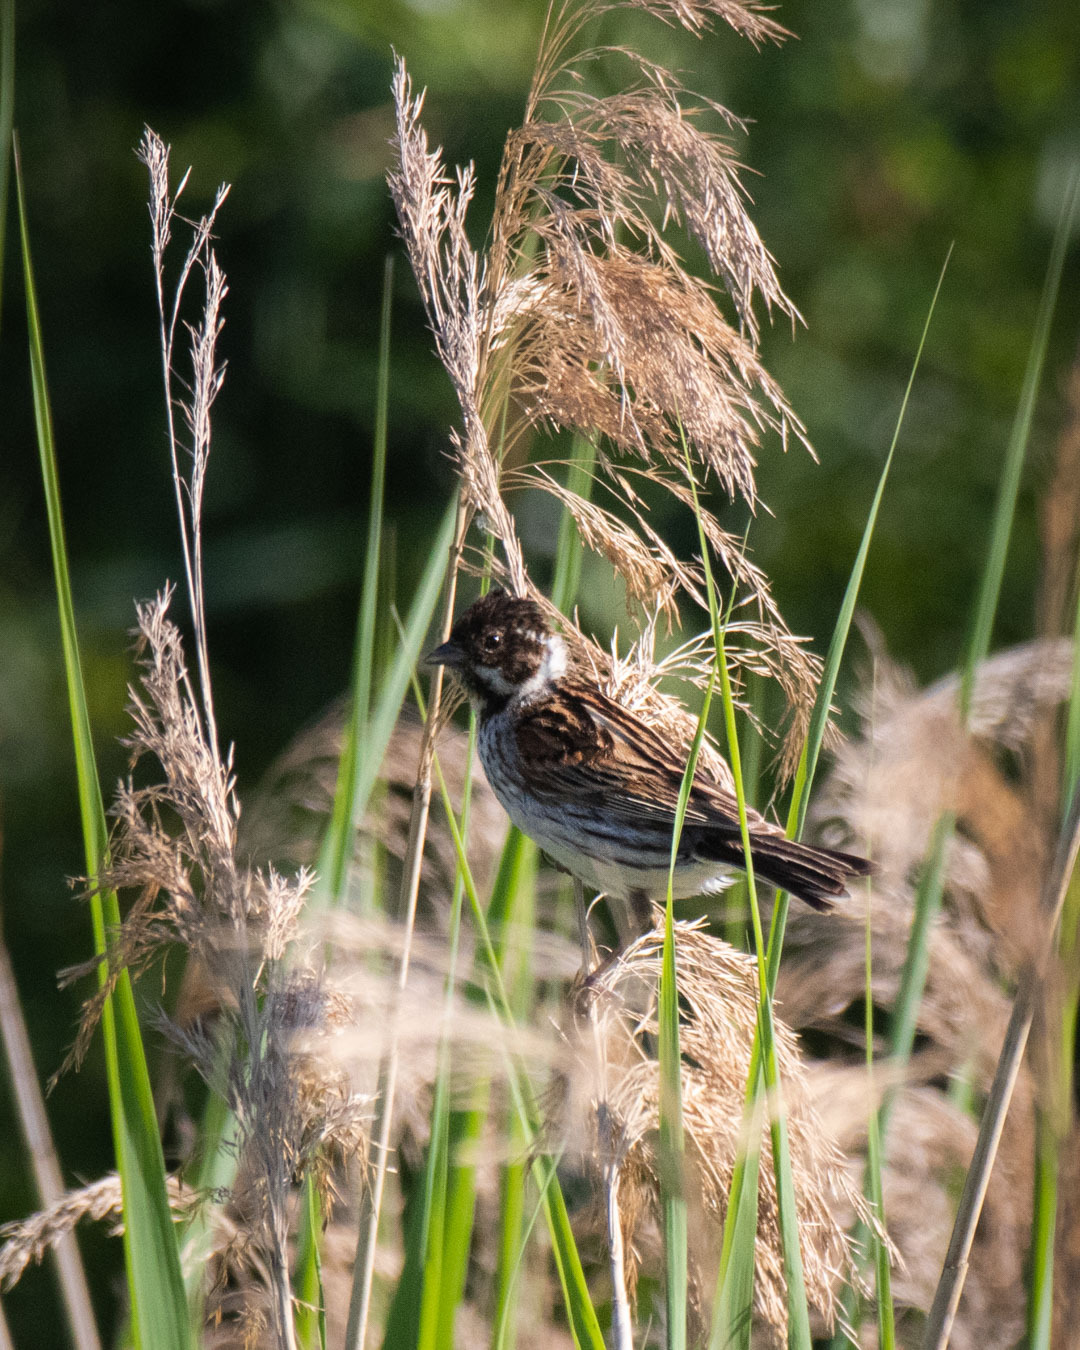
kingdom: Animalia
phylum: Chordata
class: Aves
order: Passeriformes
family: Emberizidae
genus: Emberiza
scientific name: Emberiza schoeniclus
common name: Reed bunting
